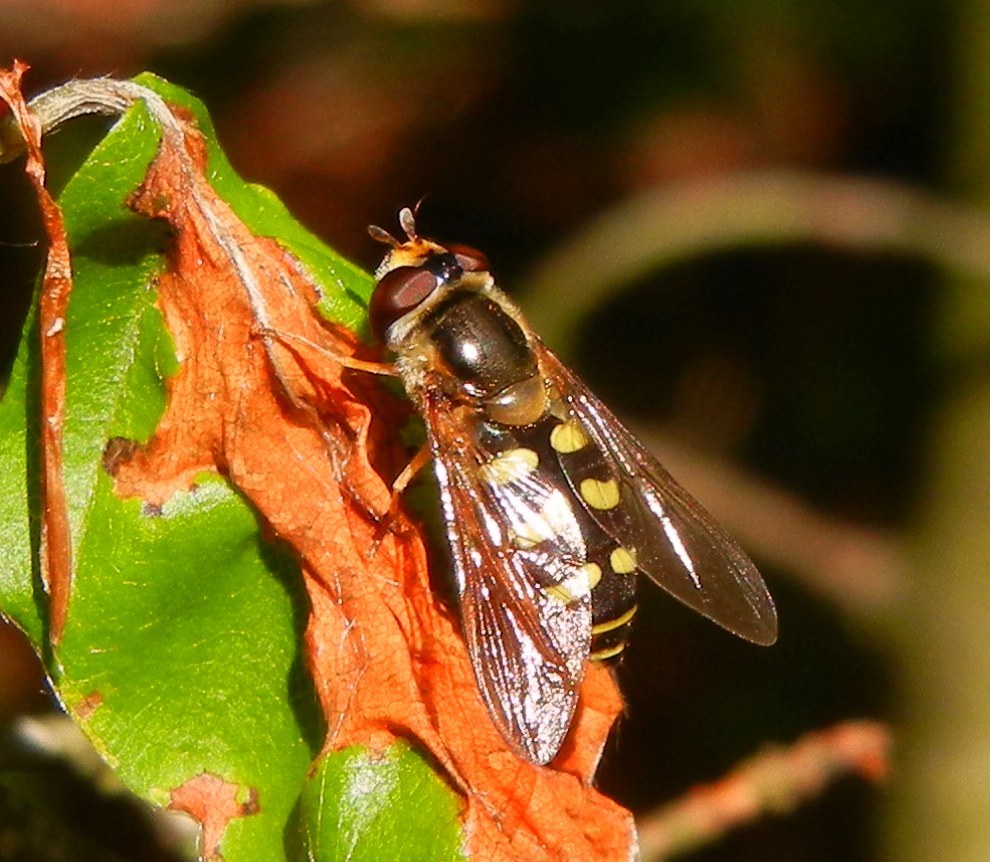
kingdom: Animalia
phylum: Arthropoda
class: Insecta
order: Diptera
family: Syrphidae
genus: Eupeodes
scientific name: Eupeodes luniger
